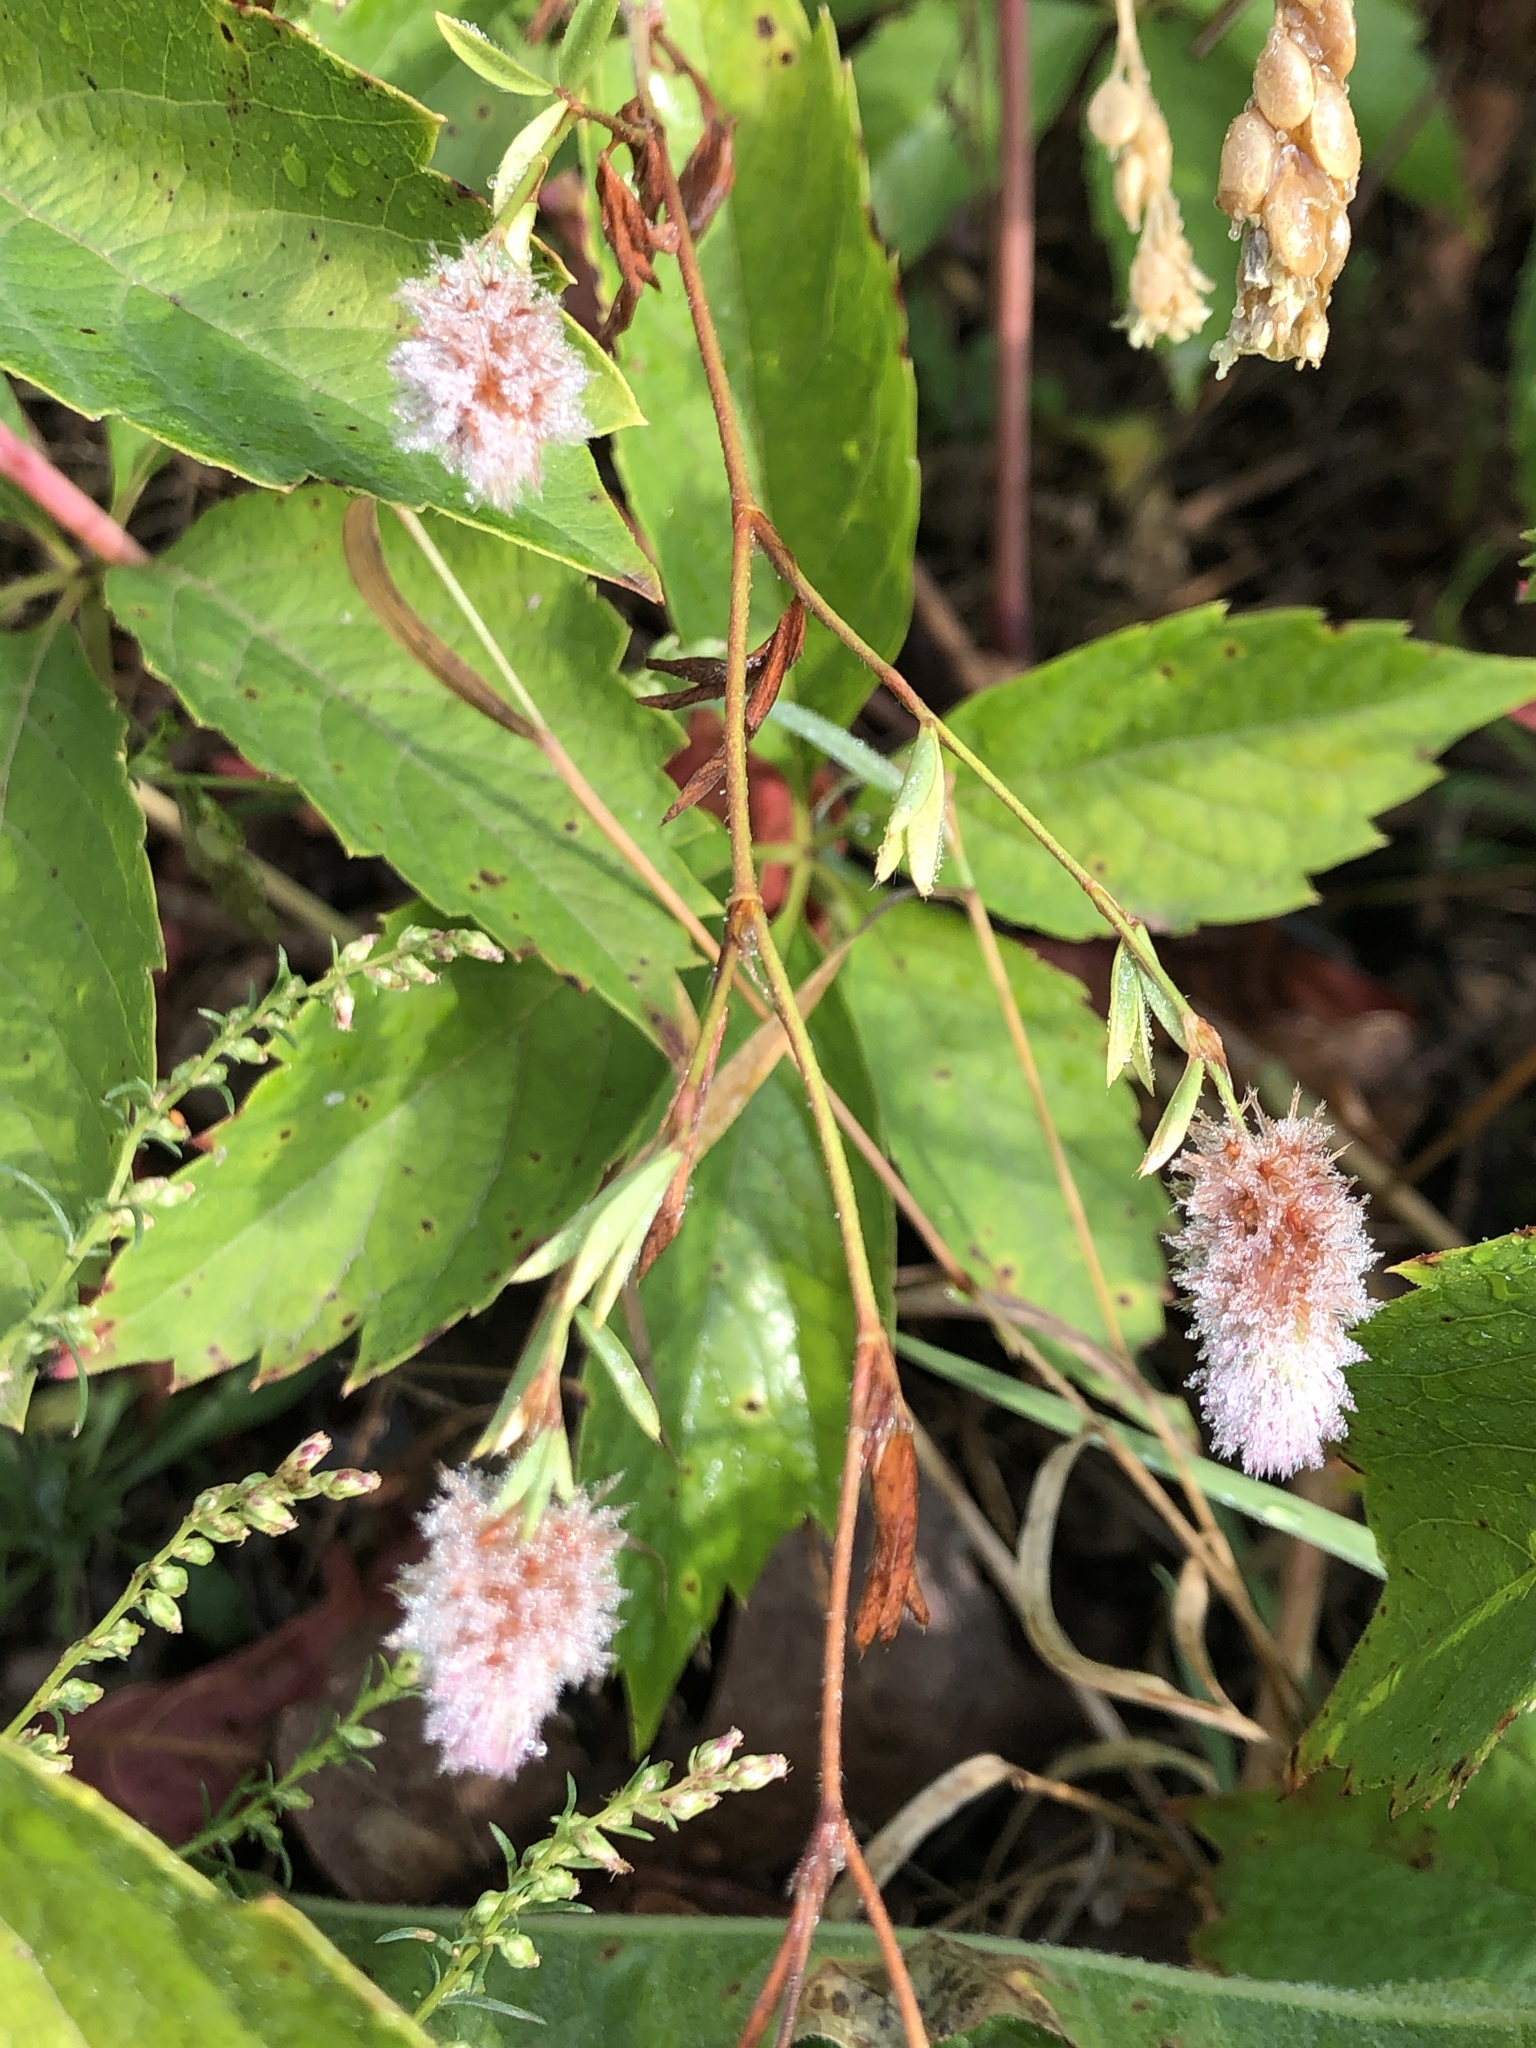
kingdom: Plantae
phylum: Tracheophyta
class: Magnoliopsida
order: Fabales
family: Fabaceae
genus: Trifolium
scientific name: Trifolium arvense
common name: Hare's-foot clover
